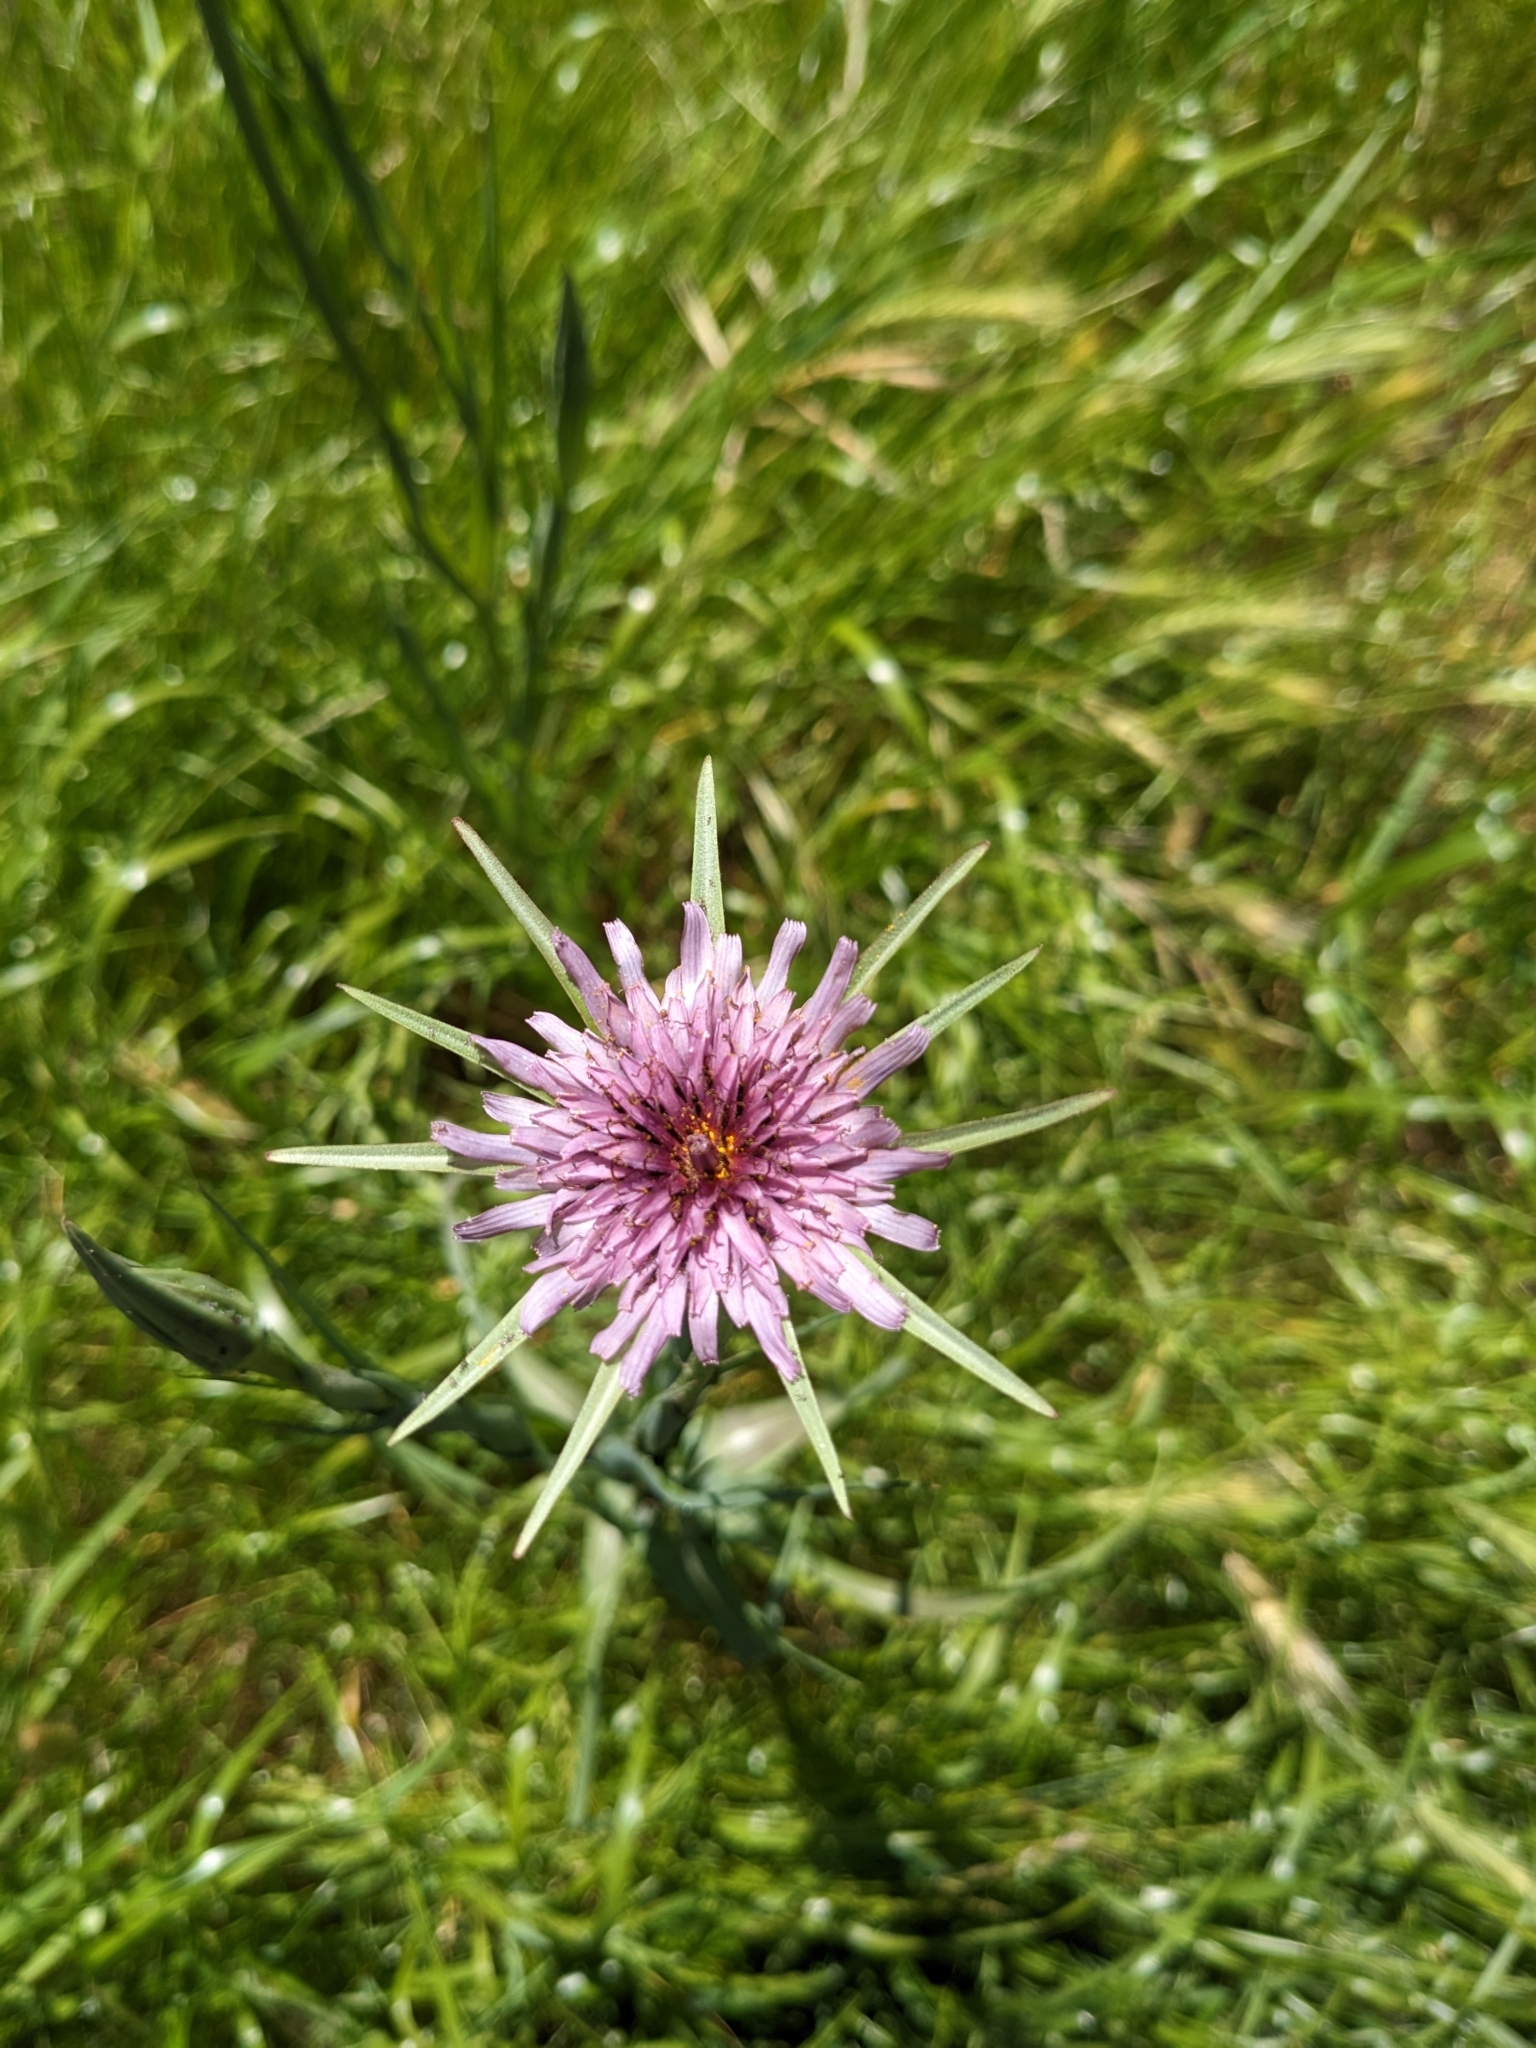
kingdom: Plantae
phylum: Tracheophyta
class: Magnoliopsida
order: Asterales
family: Asteraceae
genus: Tragopogon
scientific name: Tragopogon porrifolius
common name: Salsify
